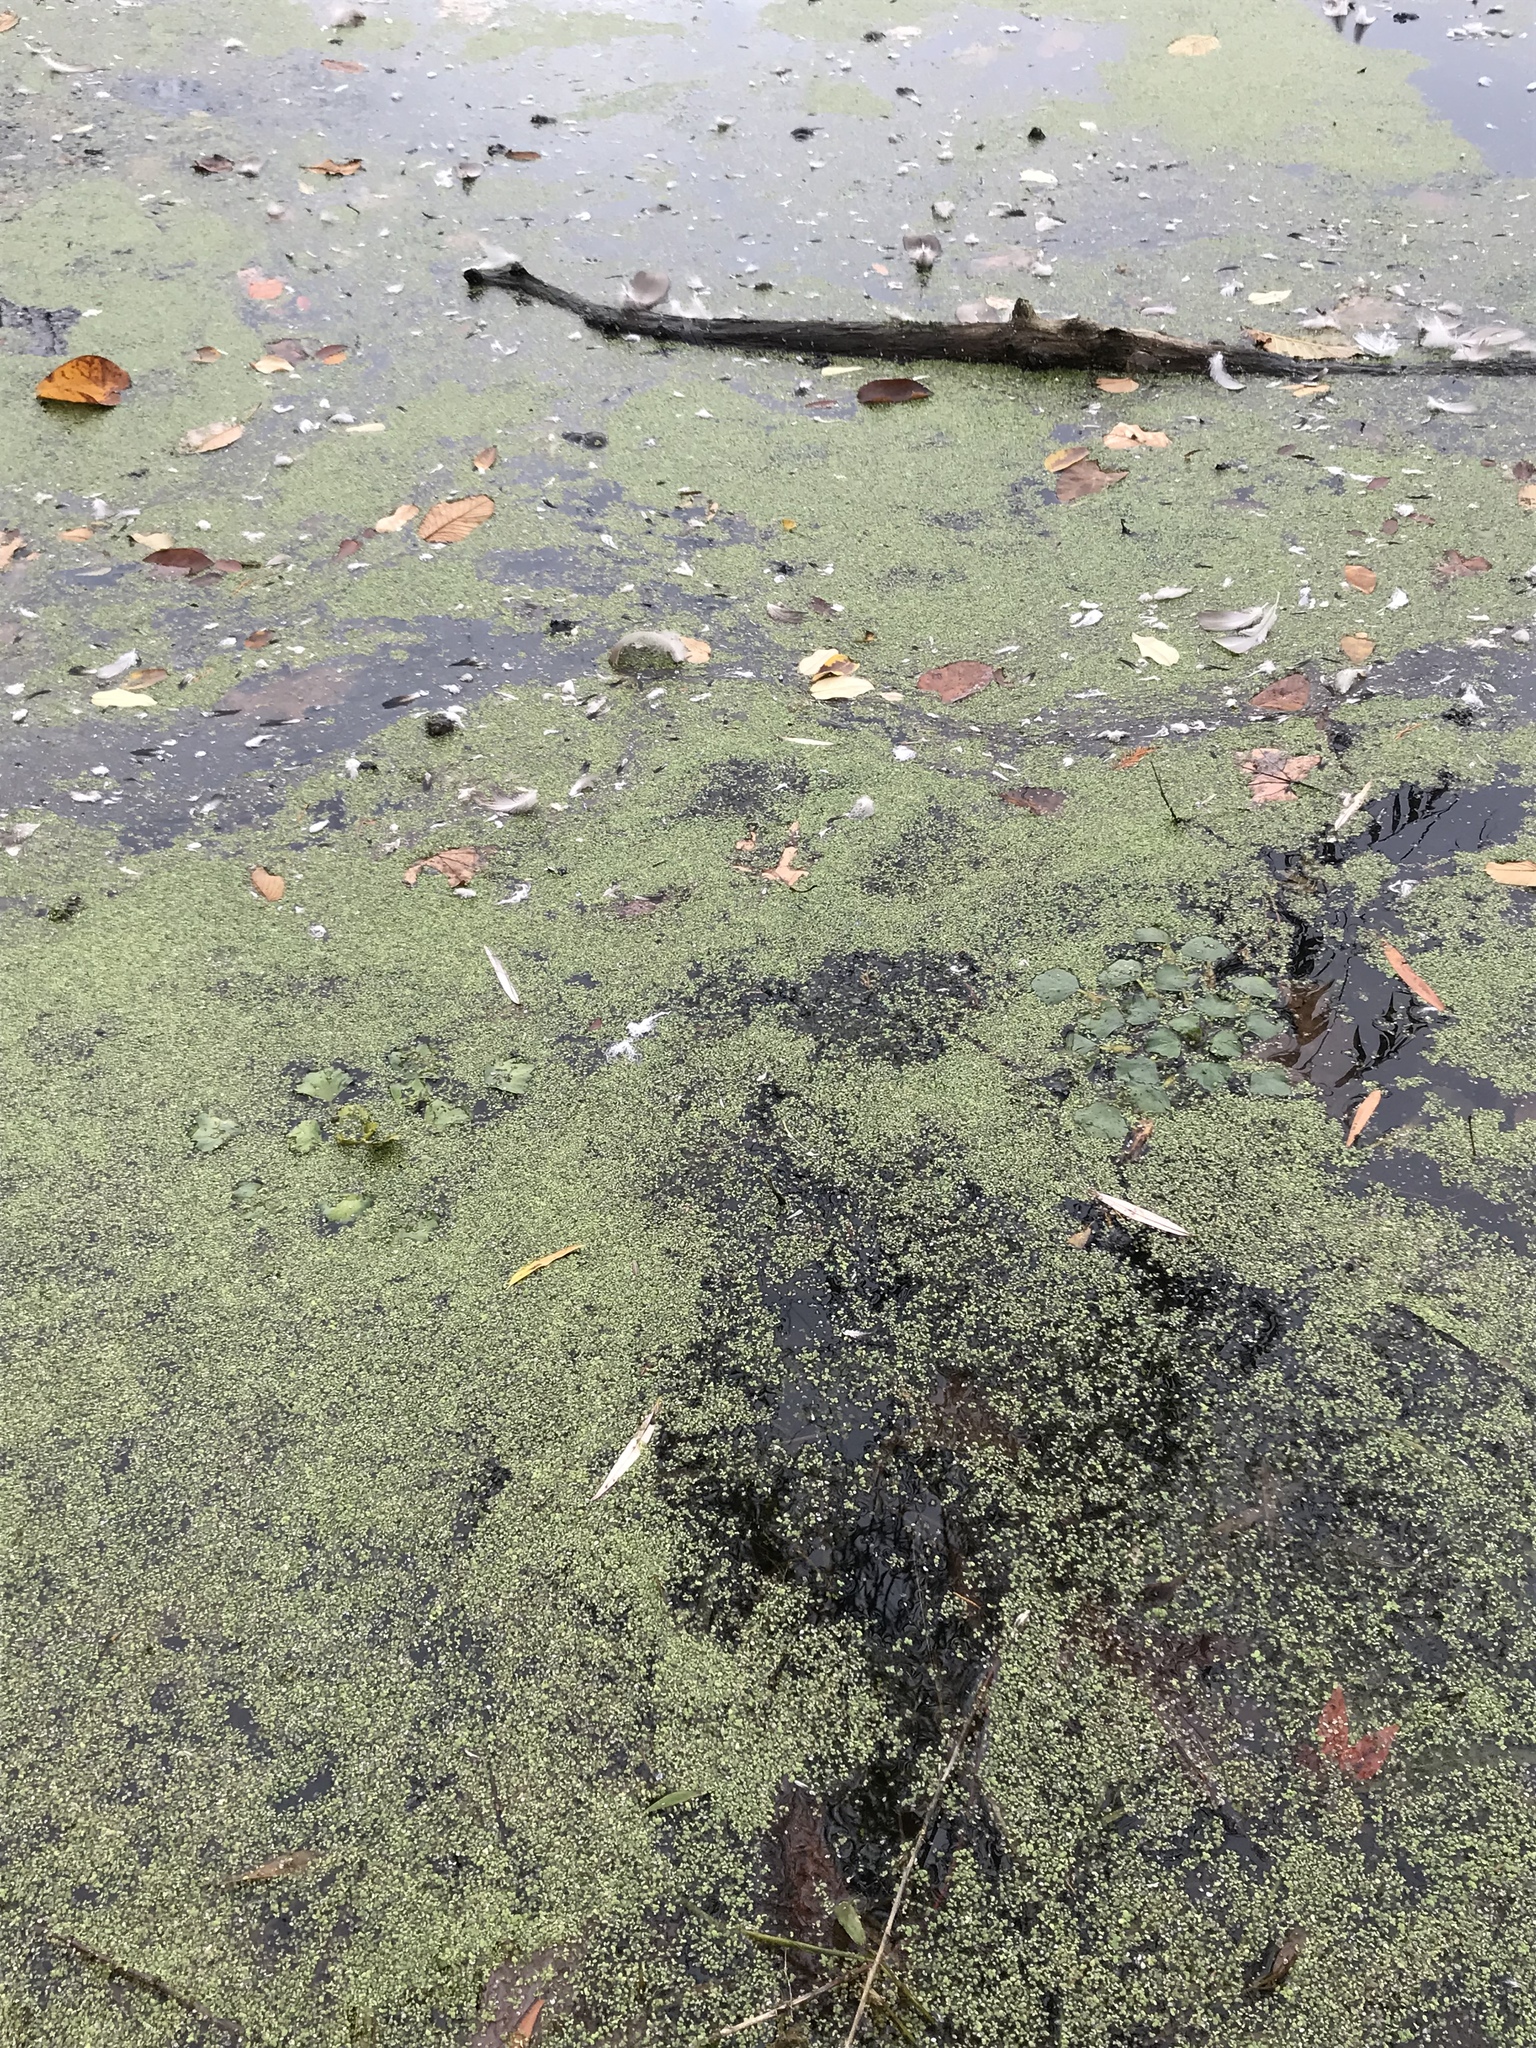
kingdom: Plantae
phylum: Tracheophyta
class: Magnoliopsida
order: Myrtales
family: Lythraceae
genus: Trapa
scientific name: Trapa natans
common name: Water chestnut
